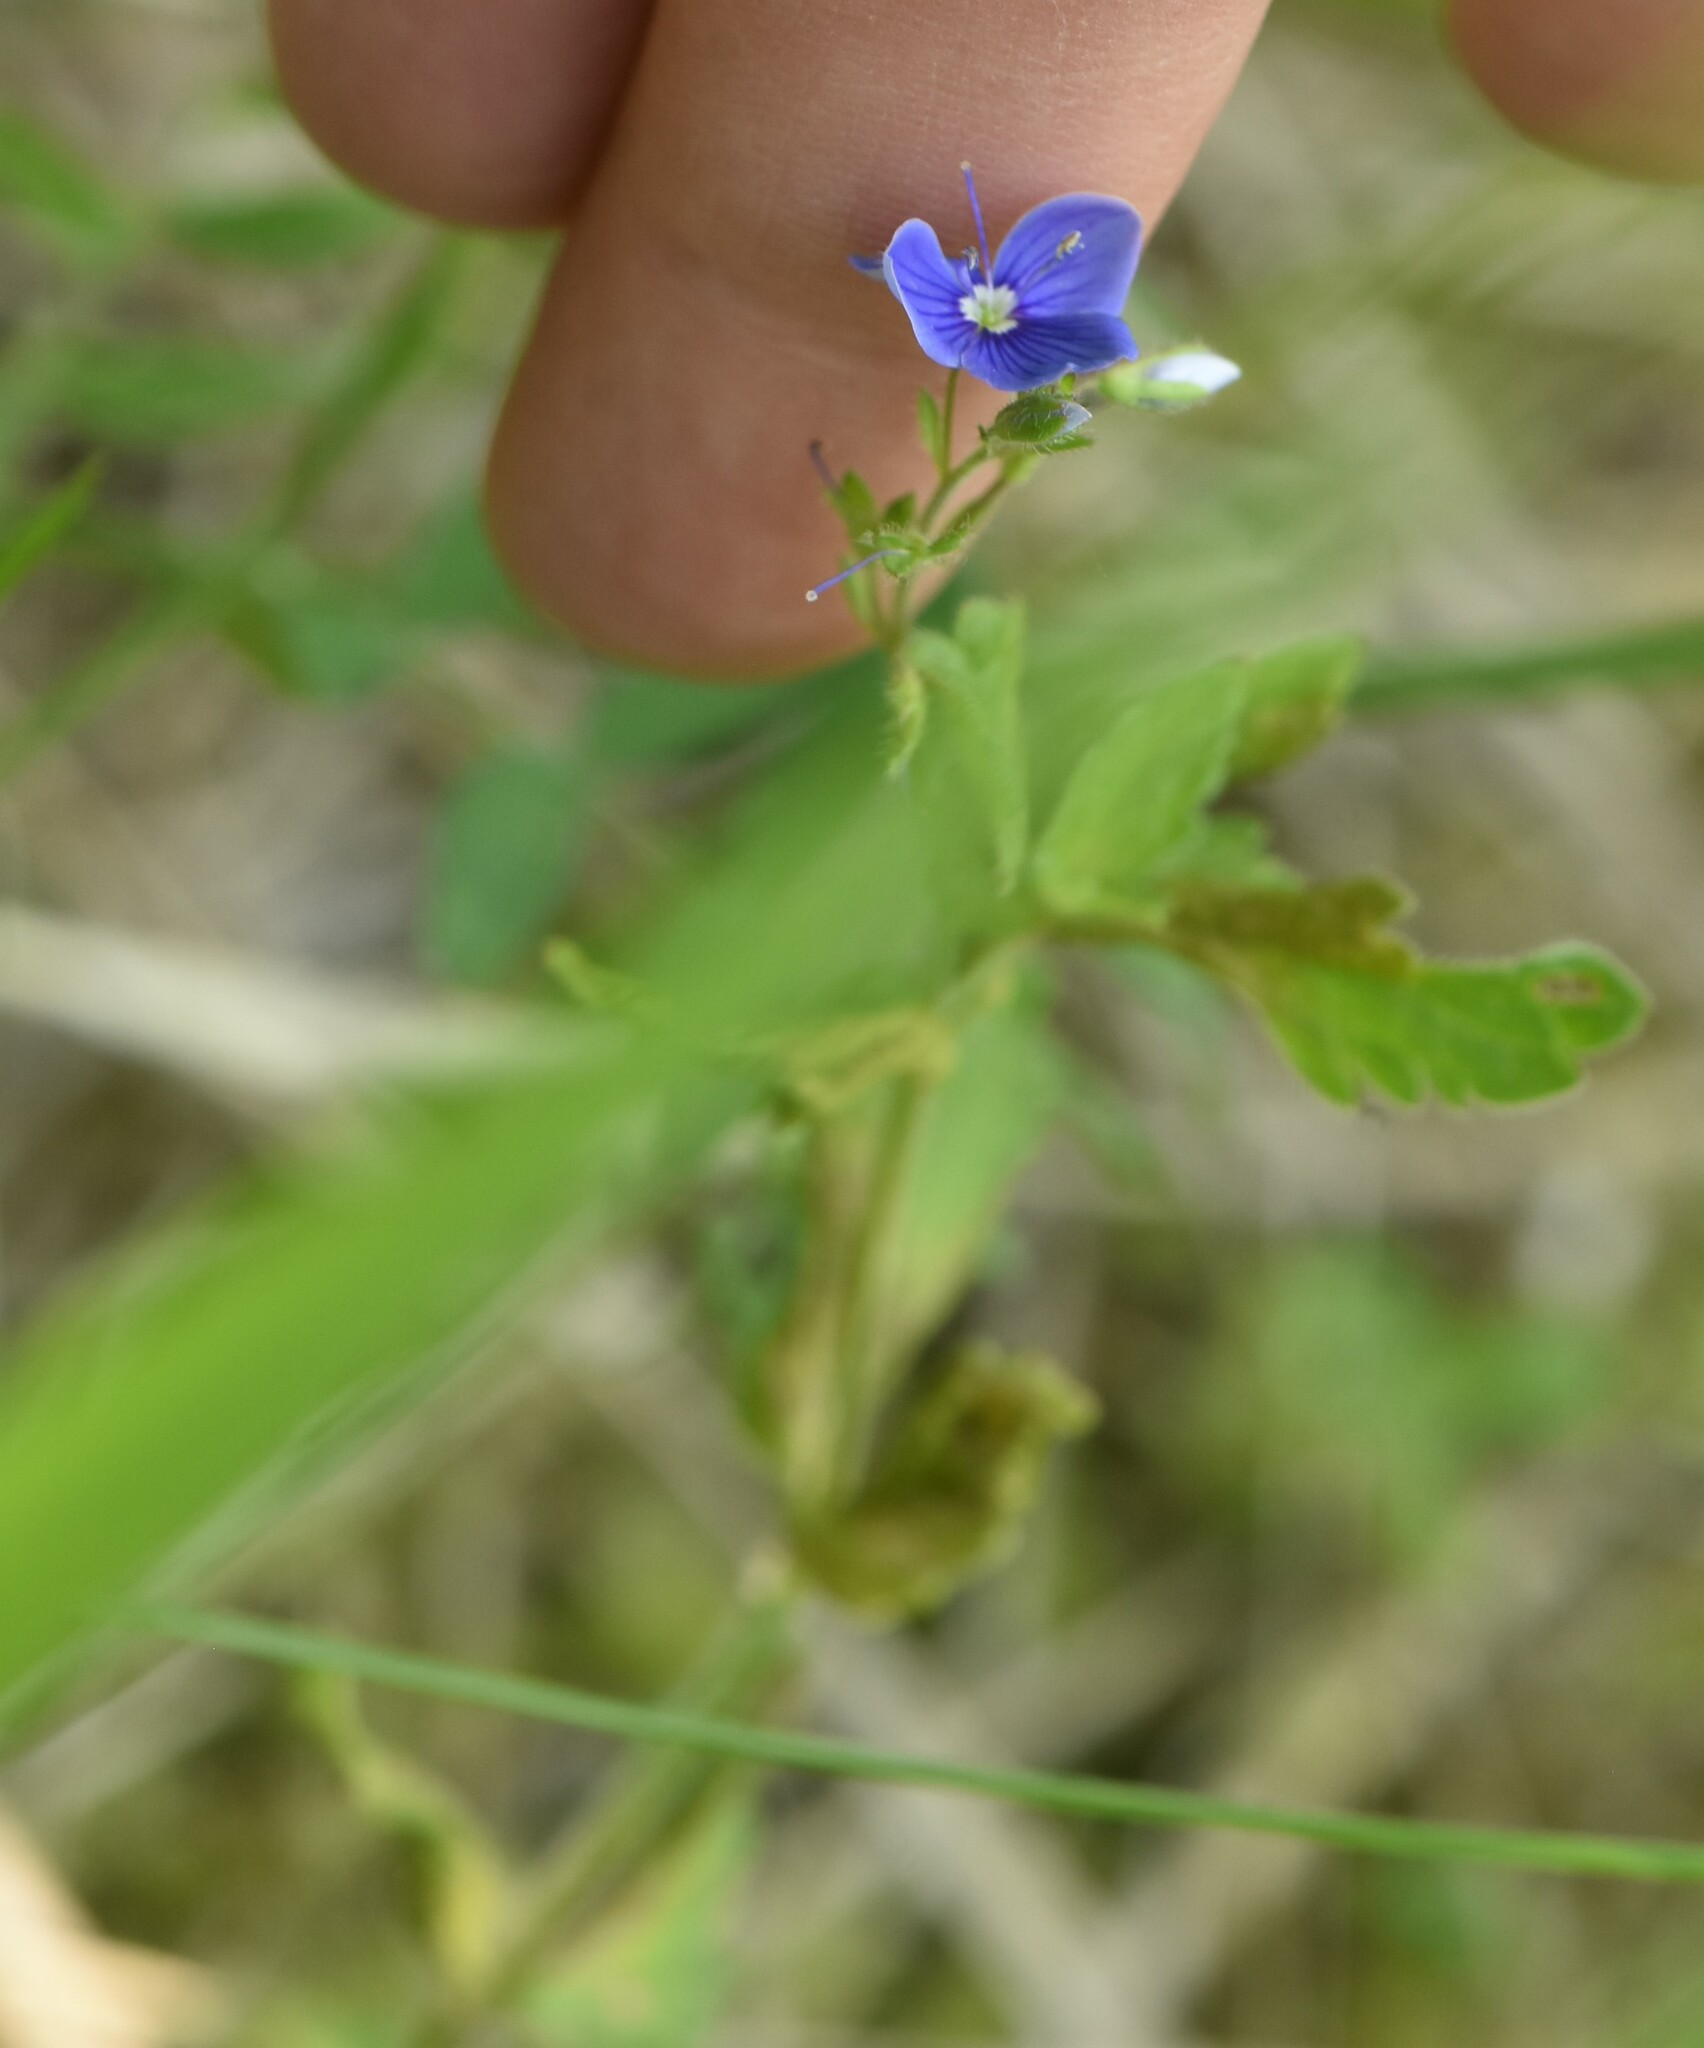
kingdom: Plantae
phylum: Tracheophyta
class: Magnoliopsida
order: Lamiales
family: Plantaginaceae
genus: Veronica
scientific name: Veronica chamaedrys
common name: Germander speedwell
